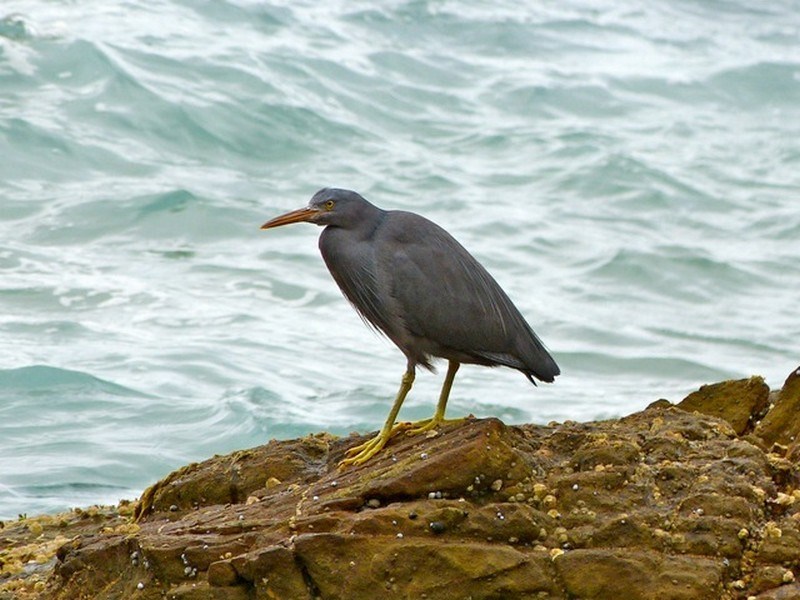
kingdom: Animalia
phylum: Chordata
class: Aves
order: Pelecaniformes
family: Ardeidae
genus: Egretta
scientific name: Egretta sacra
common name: Pacific reef heron
